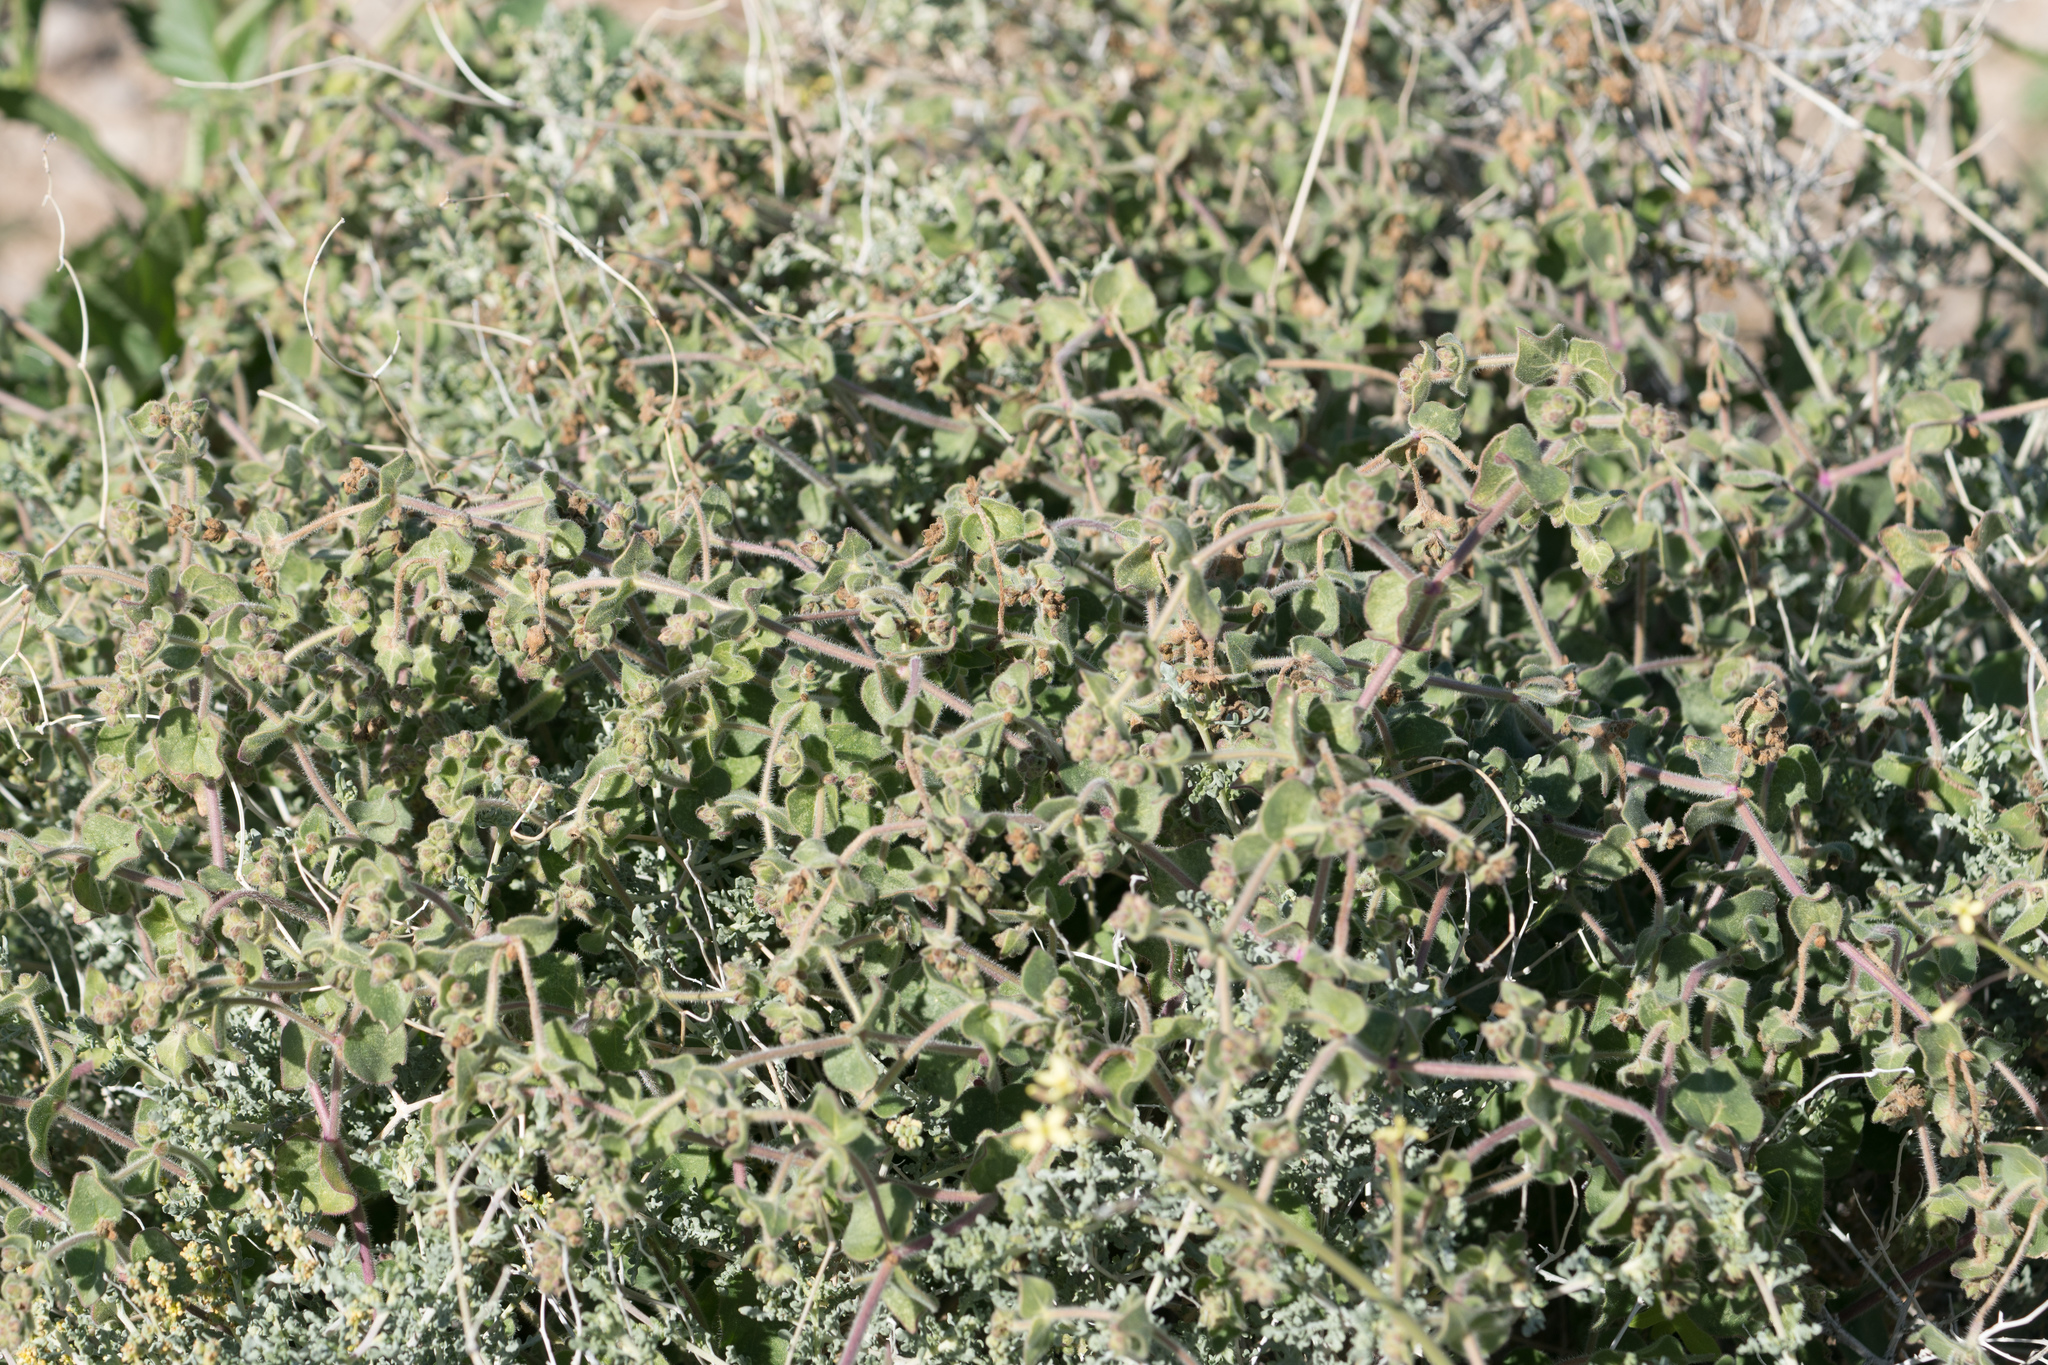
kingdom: Plantae
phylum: Tracheophyta
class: Magnoliopsida
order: Caryophyllales
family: Nyctaginaceae
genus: Mirabilis
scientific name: Mirabilis laevis
